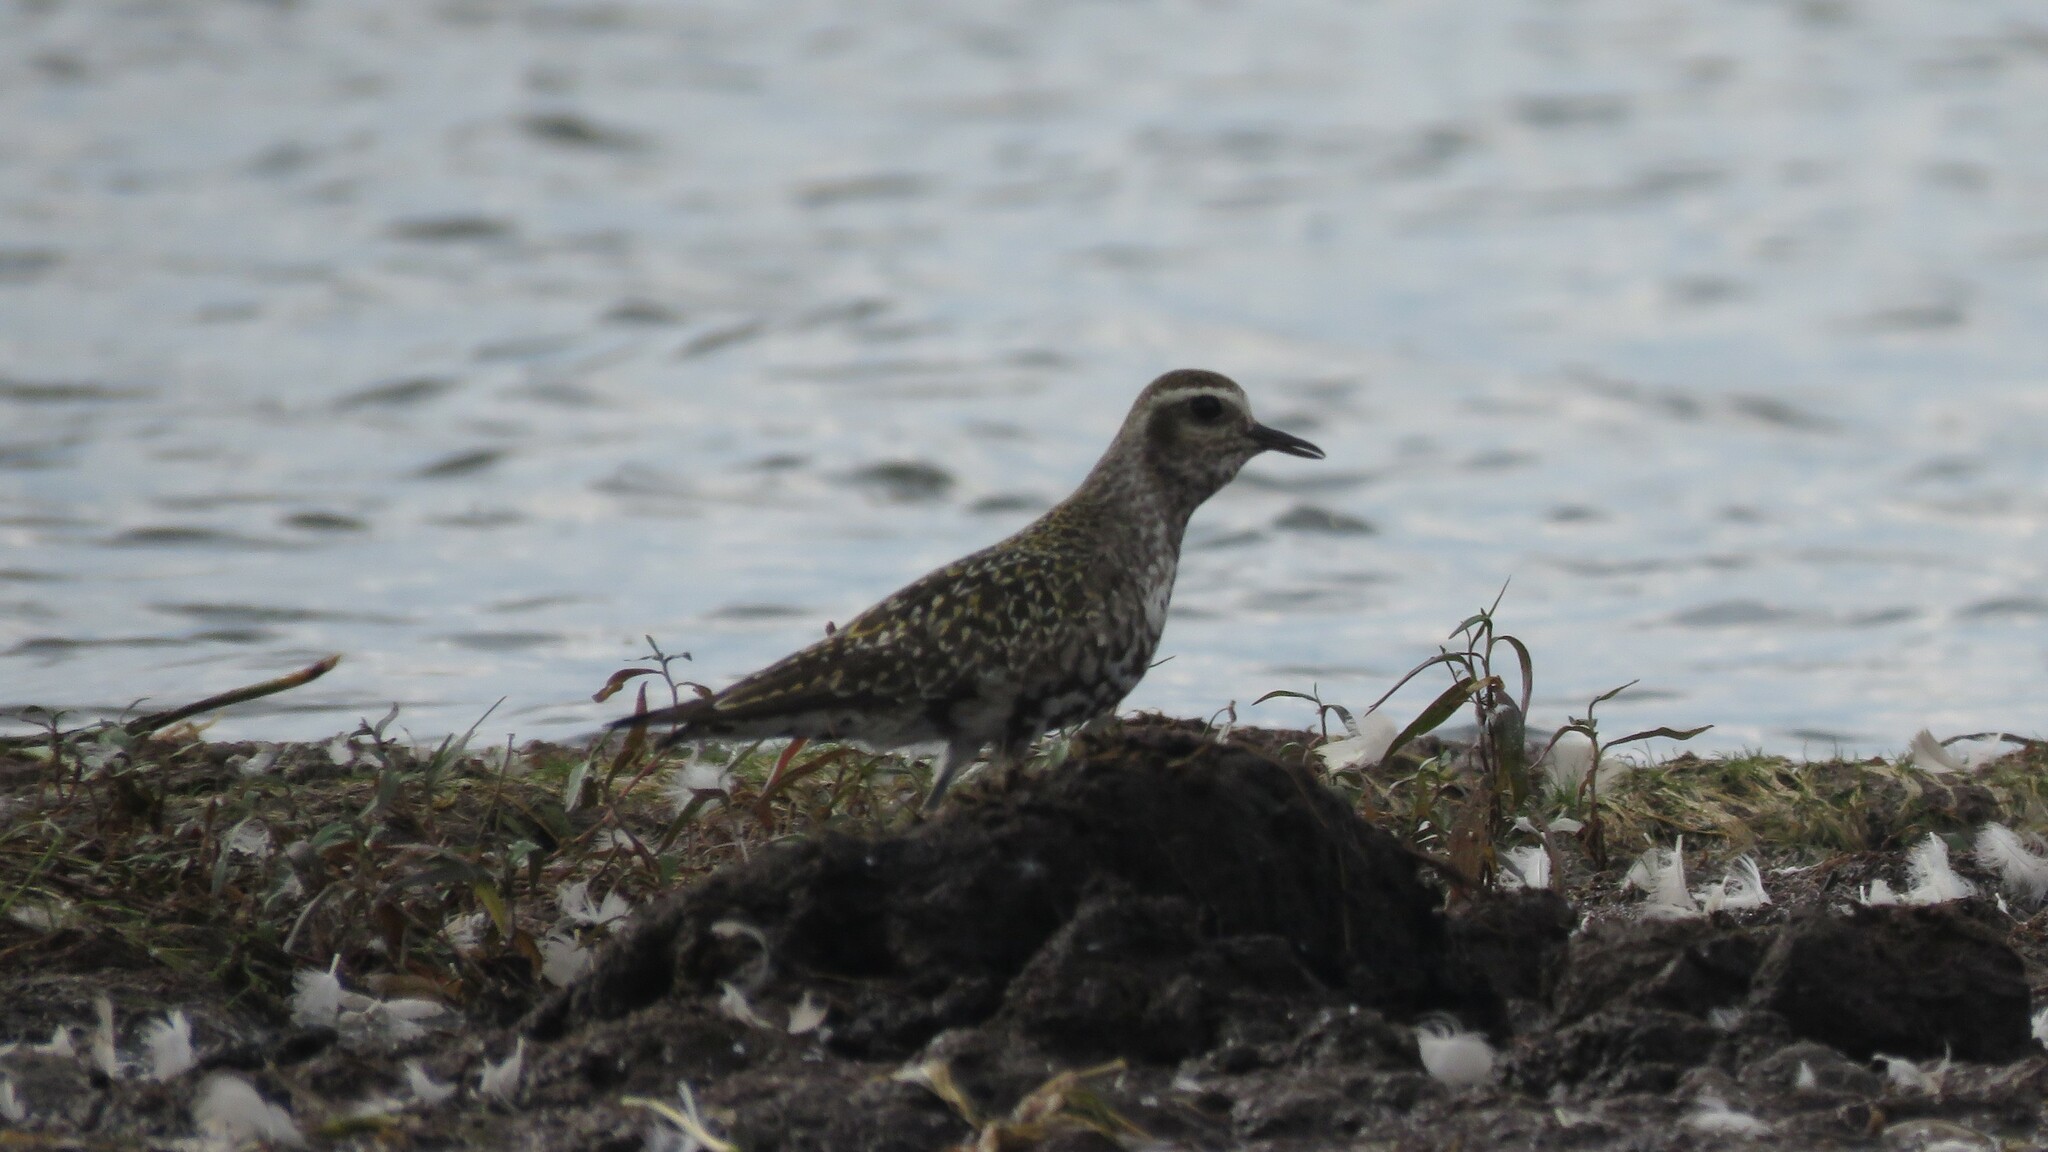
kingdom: Animalia
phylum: Chordata
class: Aves
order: Charadriiformes
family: Charadriidae
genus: Pluvialis
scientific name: Pluvialis dominica
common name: American golden plover
